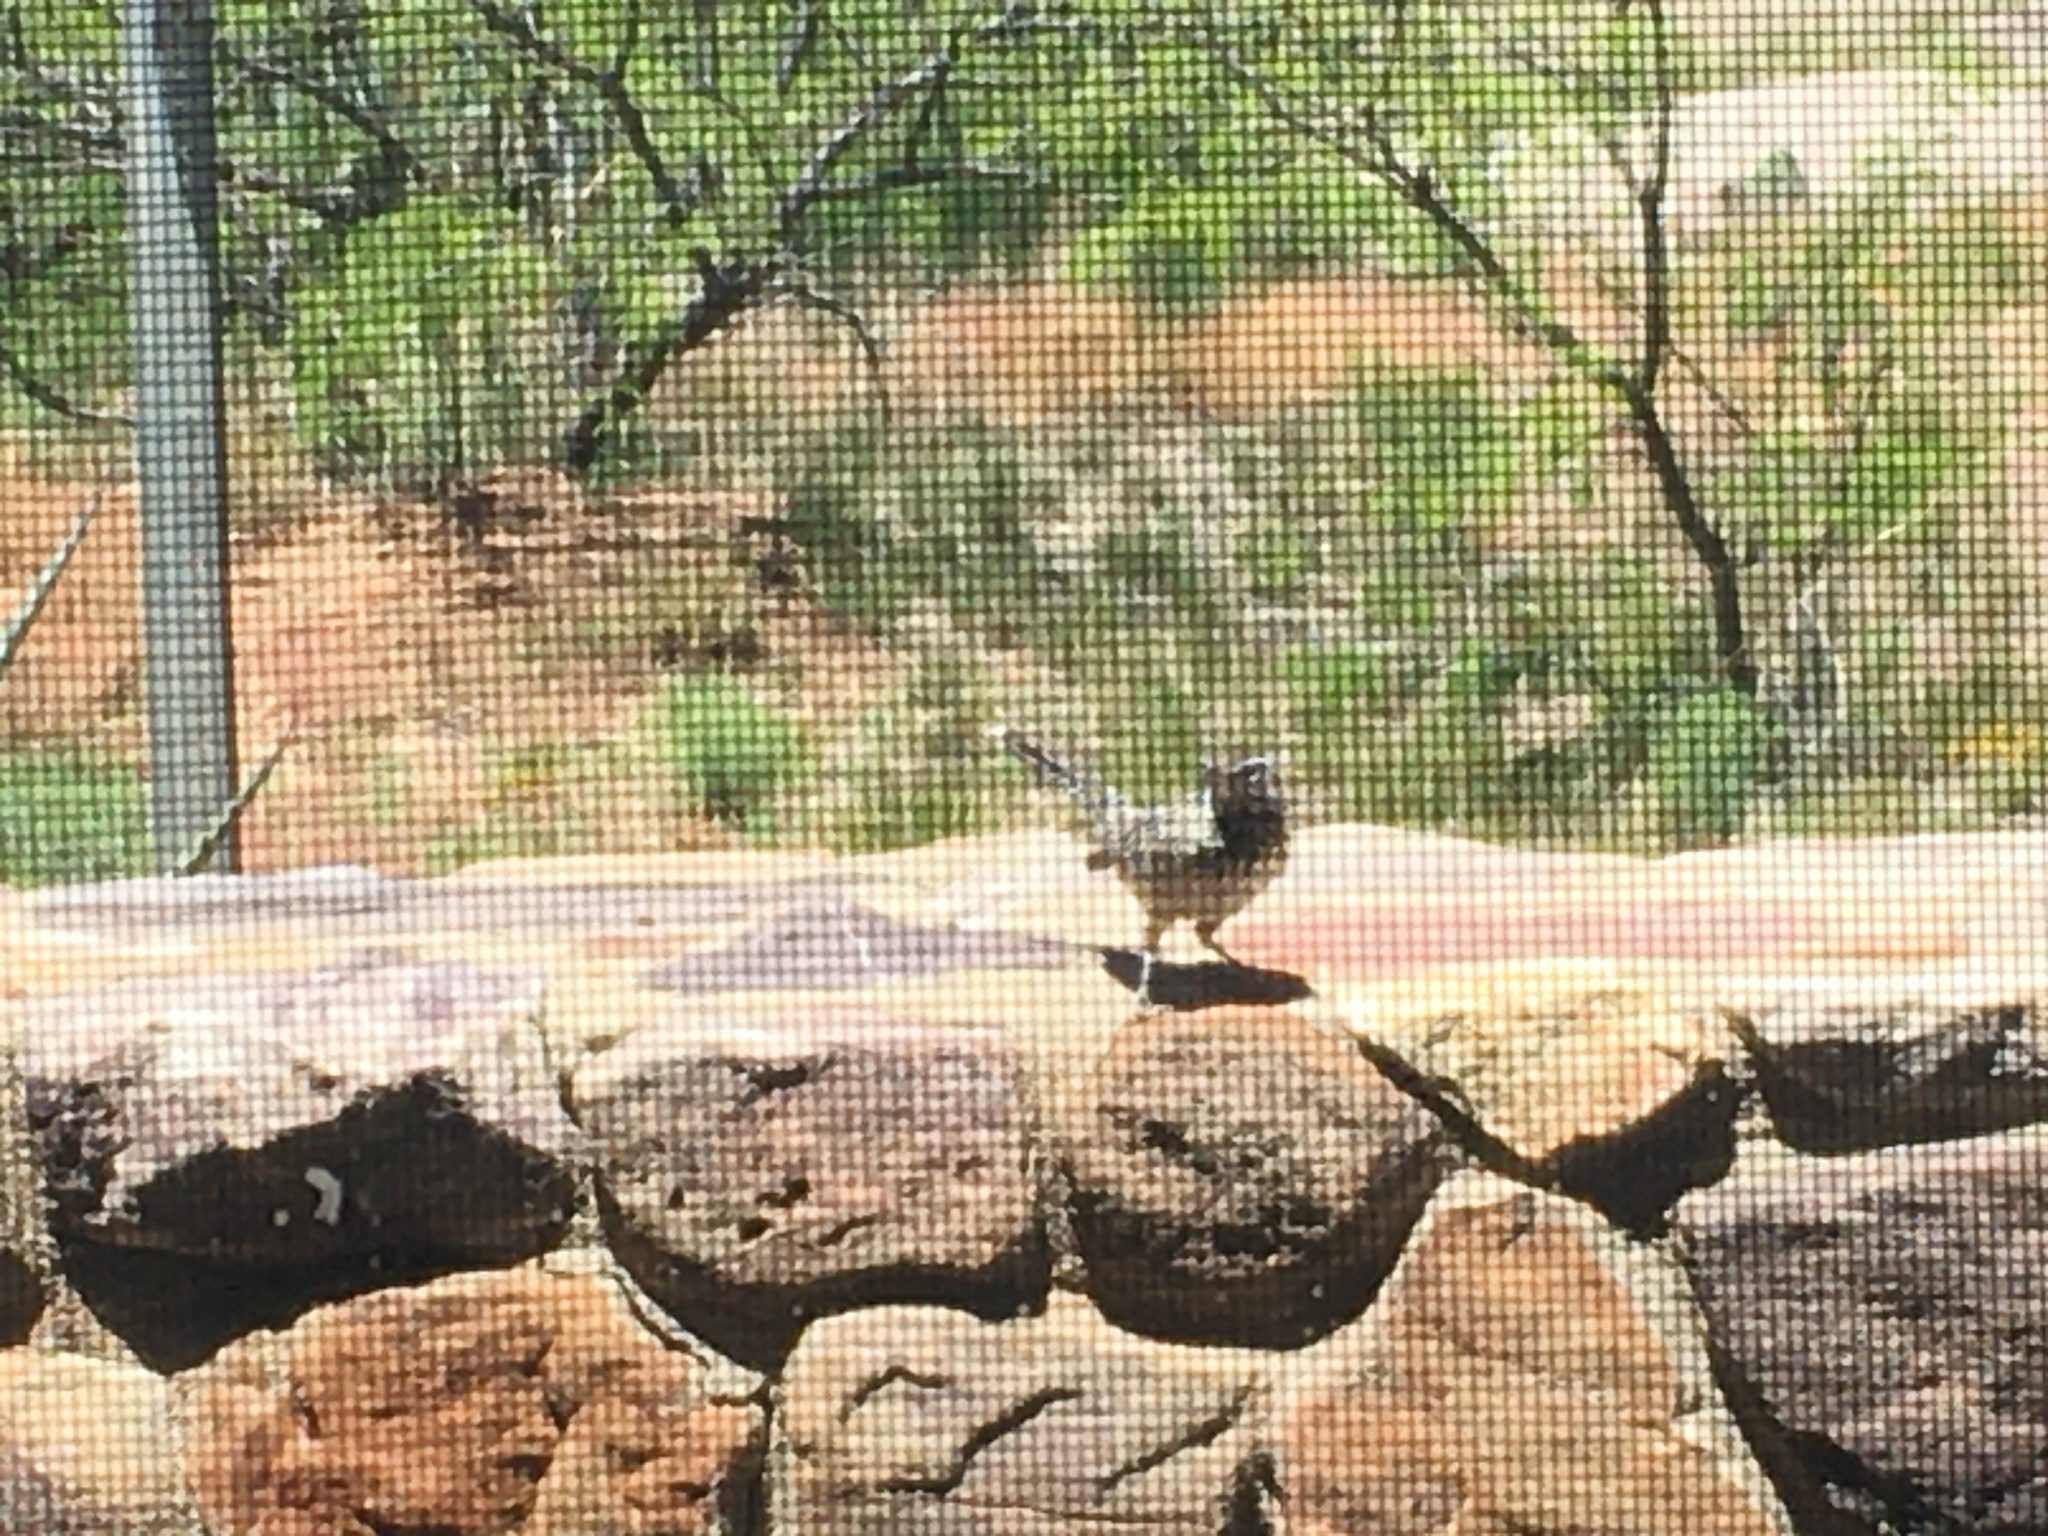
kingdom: Animalia
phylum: Chordata
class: Aves
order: Passeriformes
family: Troglodytidae
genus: Campylorhynchus
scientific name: Campylorhynchus brunneicapillus
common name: Cactus wren
